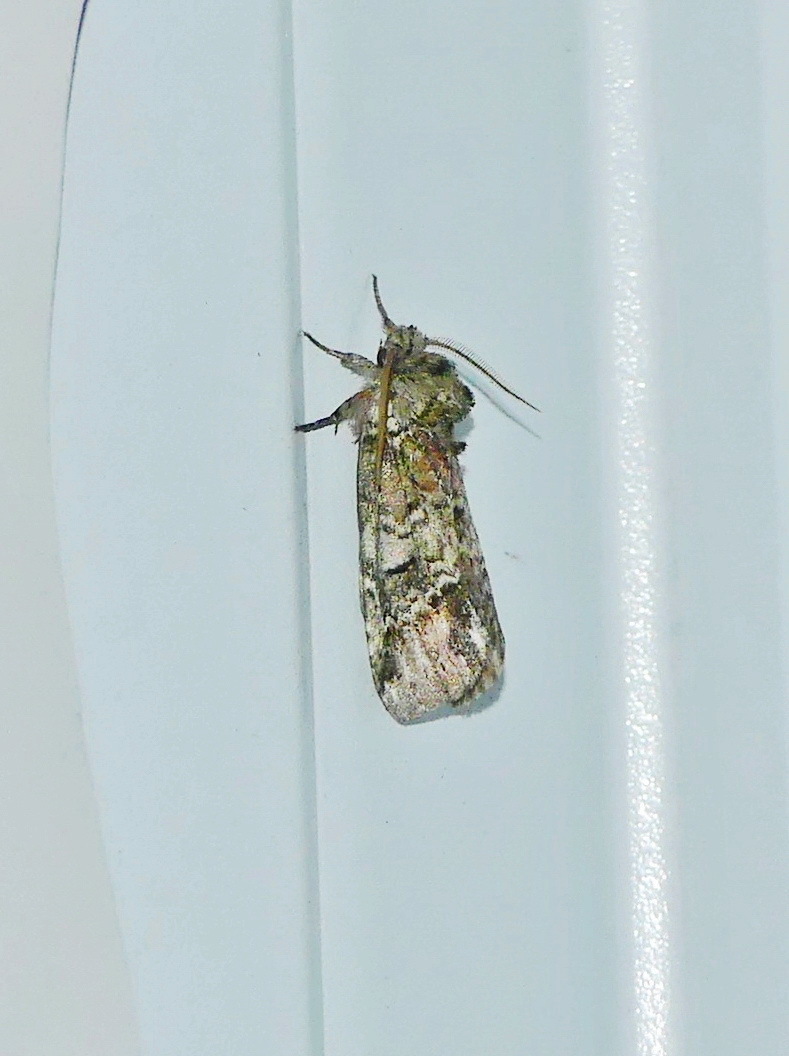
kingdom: Animalia
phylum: Arthropoda
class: Insecta
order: Lepidoptera
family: Notodontidae
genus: Schizura
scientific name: Schizura
